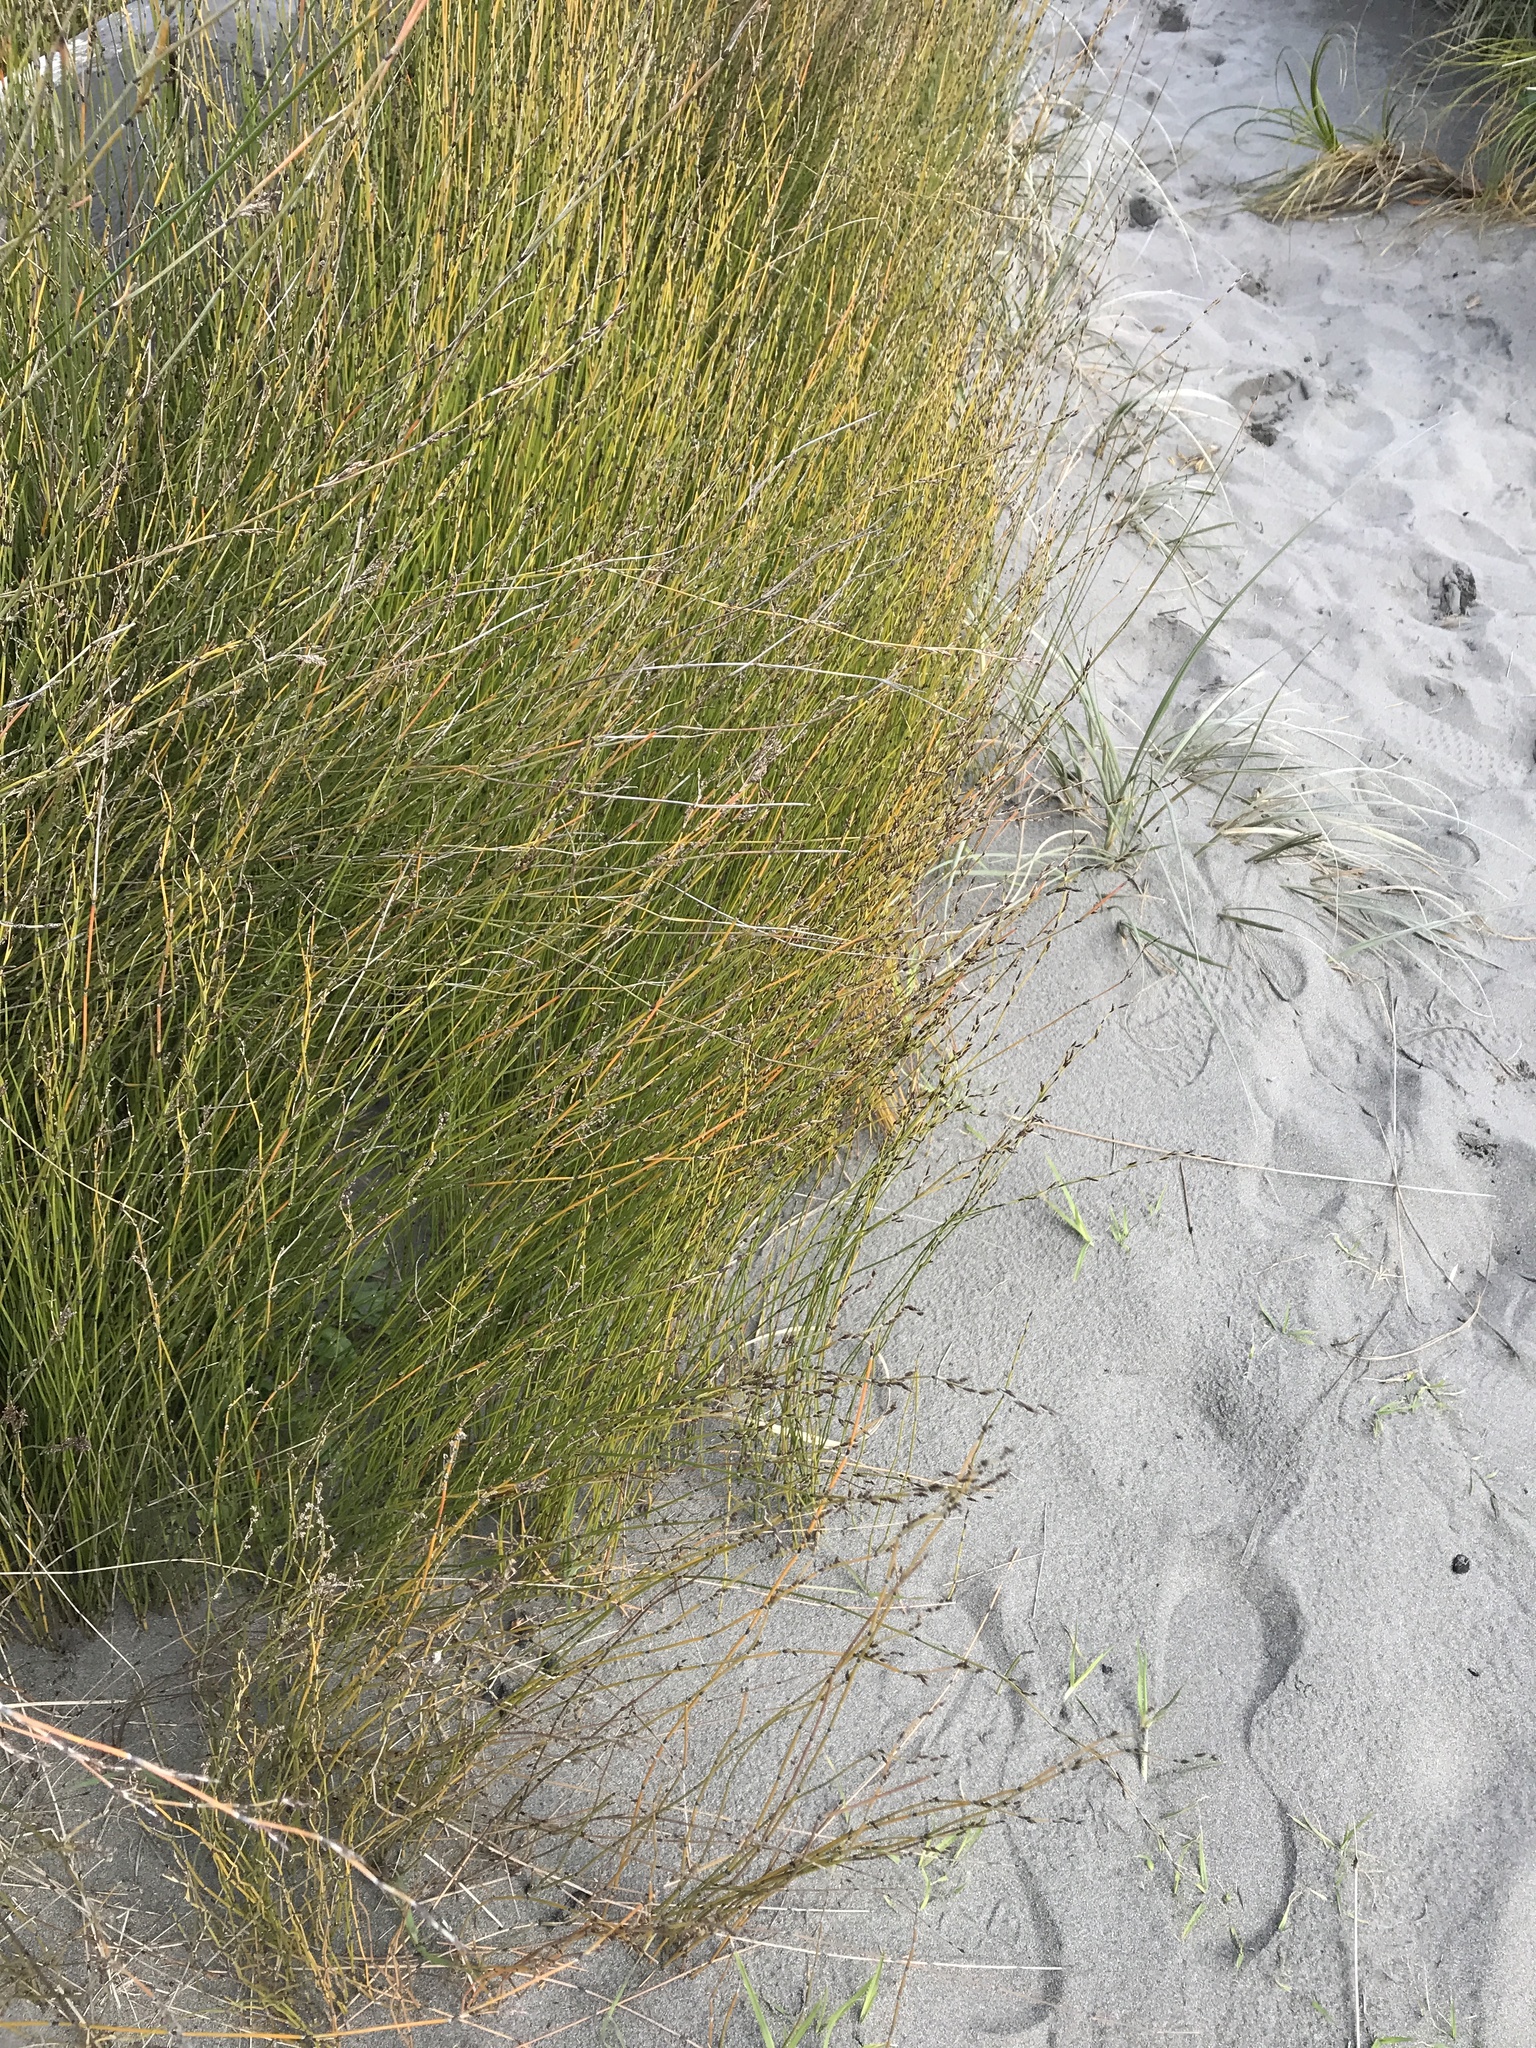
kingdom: Plantae
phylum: Tracheophyta
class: Liliopsida
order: Poales
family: Restionaceae
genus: Apodasmia
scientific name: Apodasmia similis
